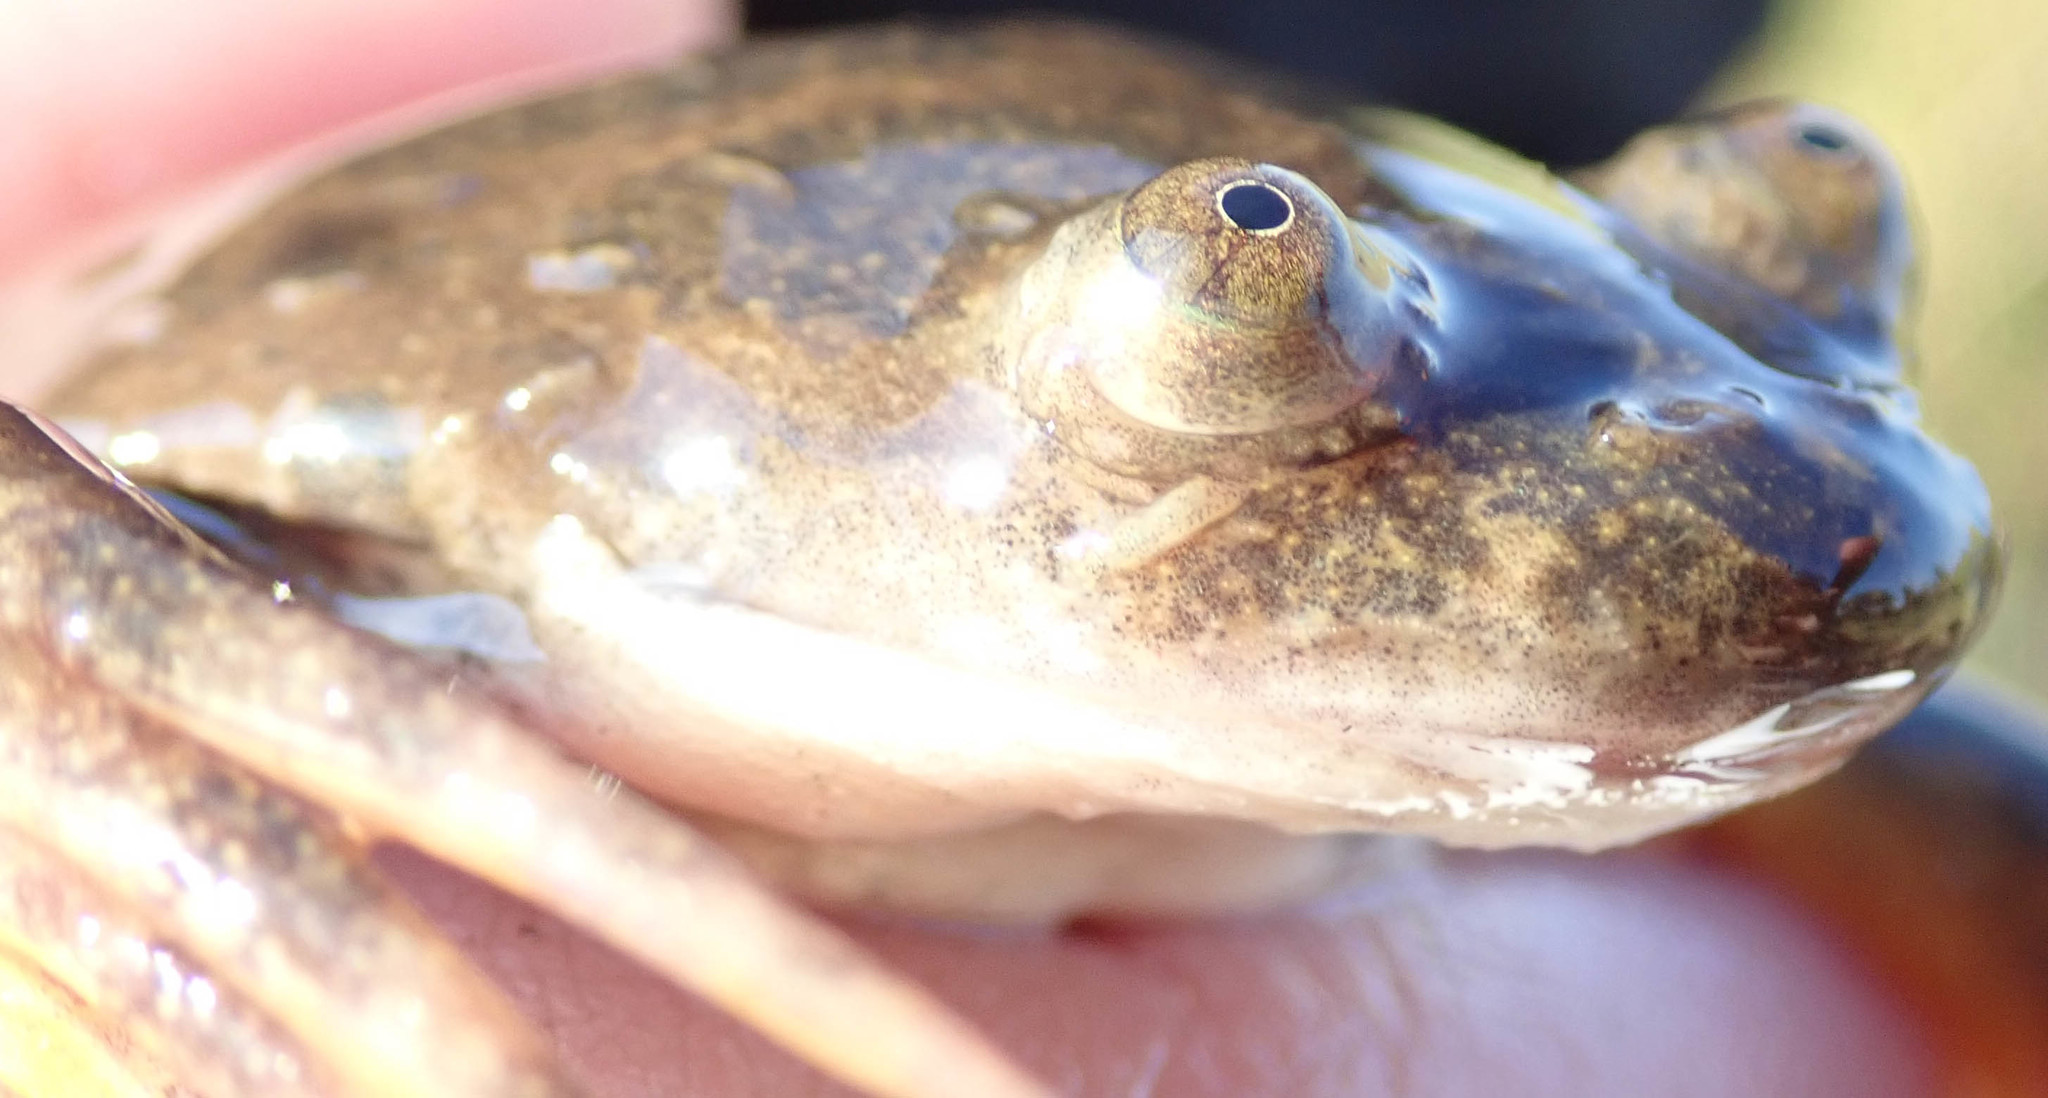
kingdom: Animalia
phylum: Chordata
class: Amphibia
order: Anura
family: Pipidae
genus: Xenopus
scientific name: Xenopus muelleri
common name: Muller's clawed frog
